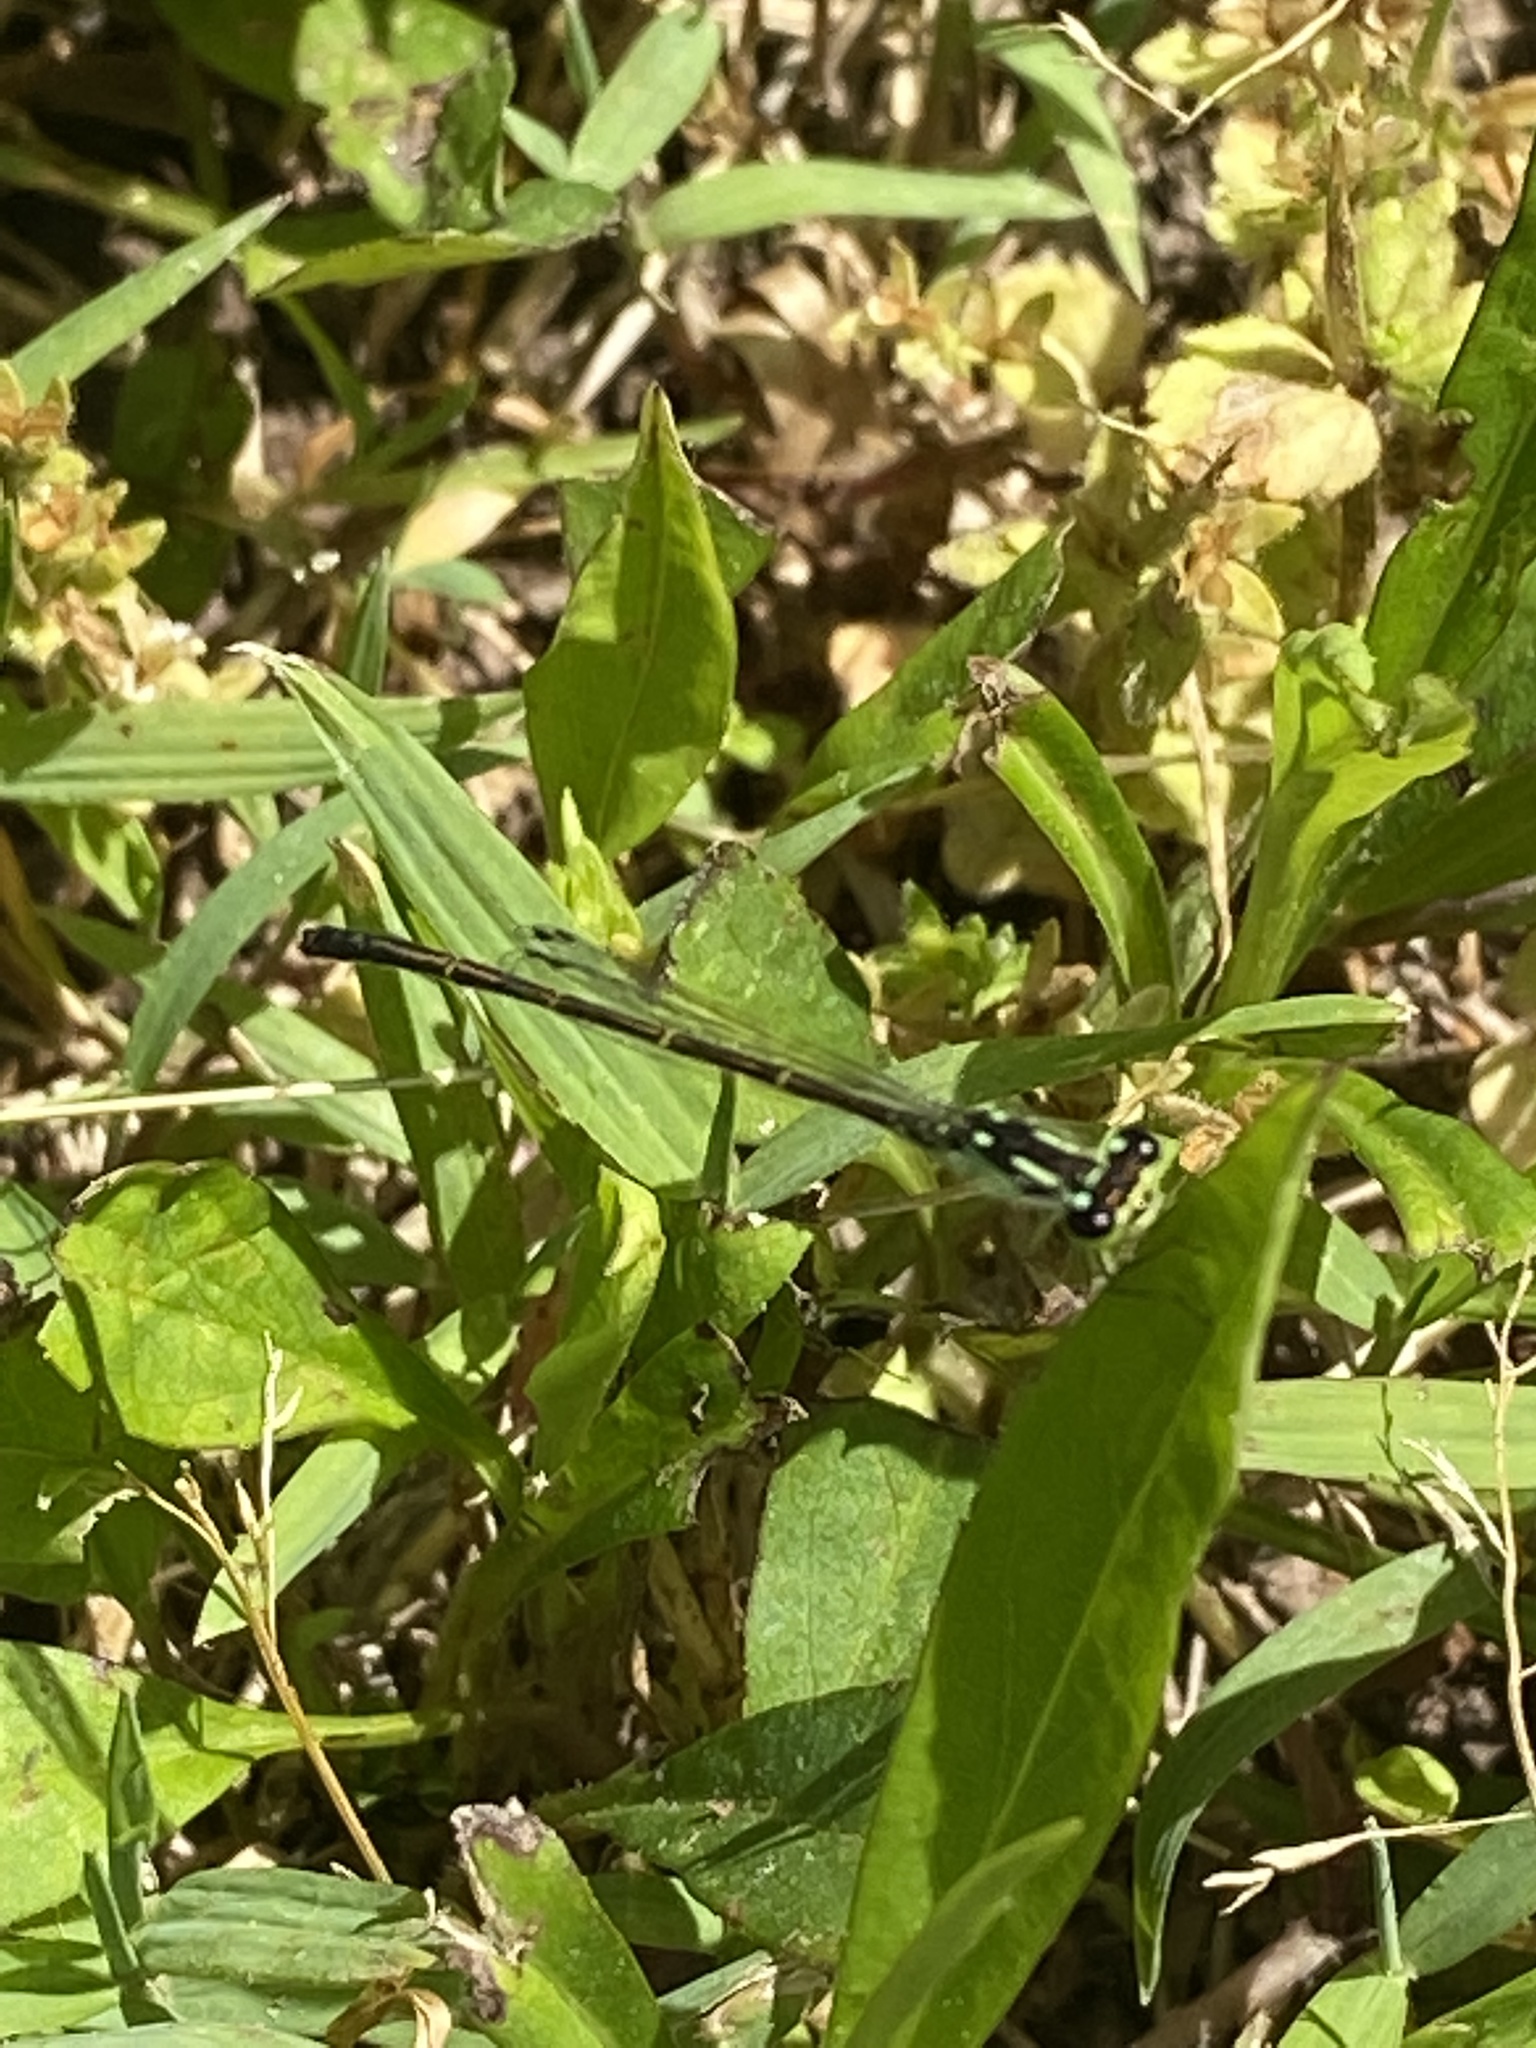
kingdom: Animalia
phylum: Arthropoda
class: Insecta
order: Odonata
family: Coenagrionidae
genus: Ischnura
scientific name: Ischnura posita
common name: Fragile forktail
